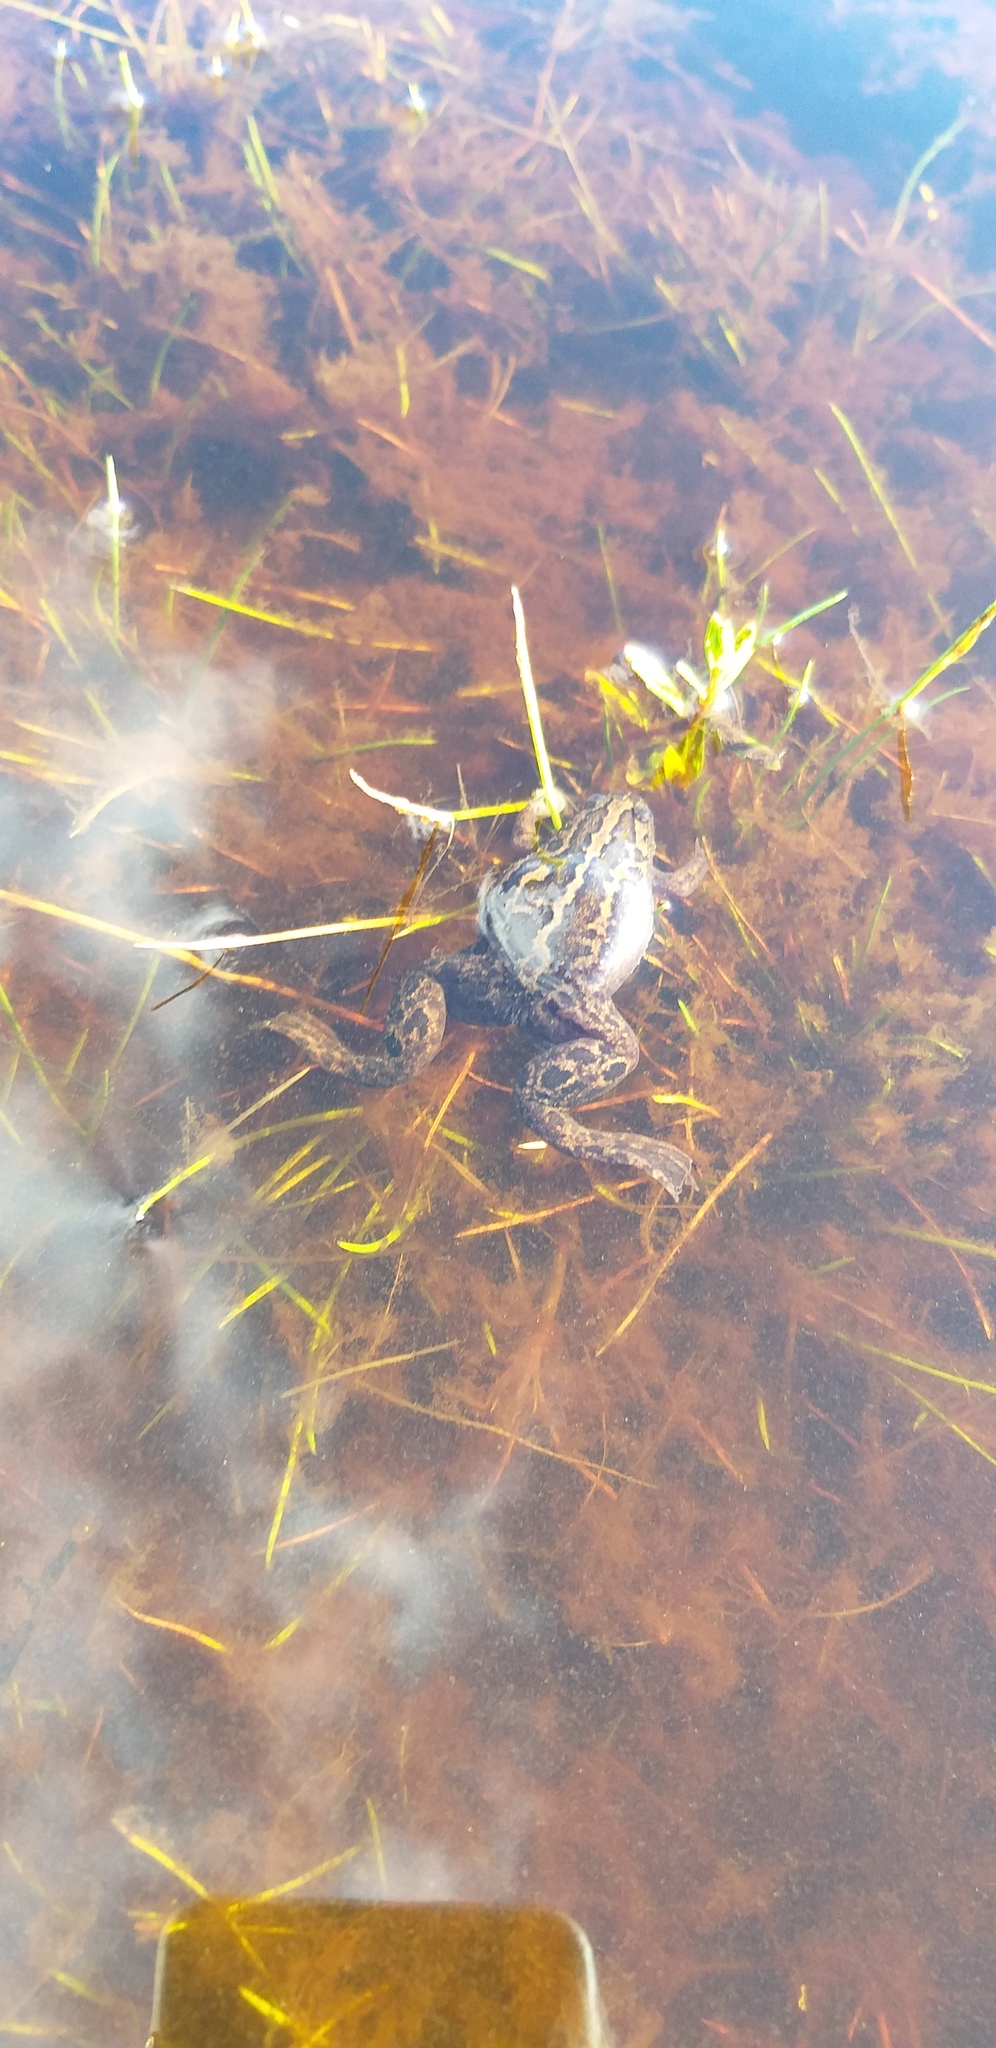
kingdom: Animalia
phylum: Chordata
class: Amphibia
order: Anura
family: Pipidae
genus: Xenopus
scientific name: Xenopus gilli
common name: Gill's platanna
